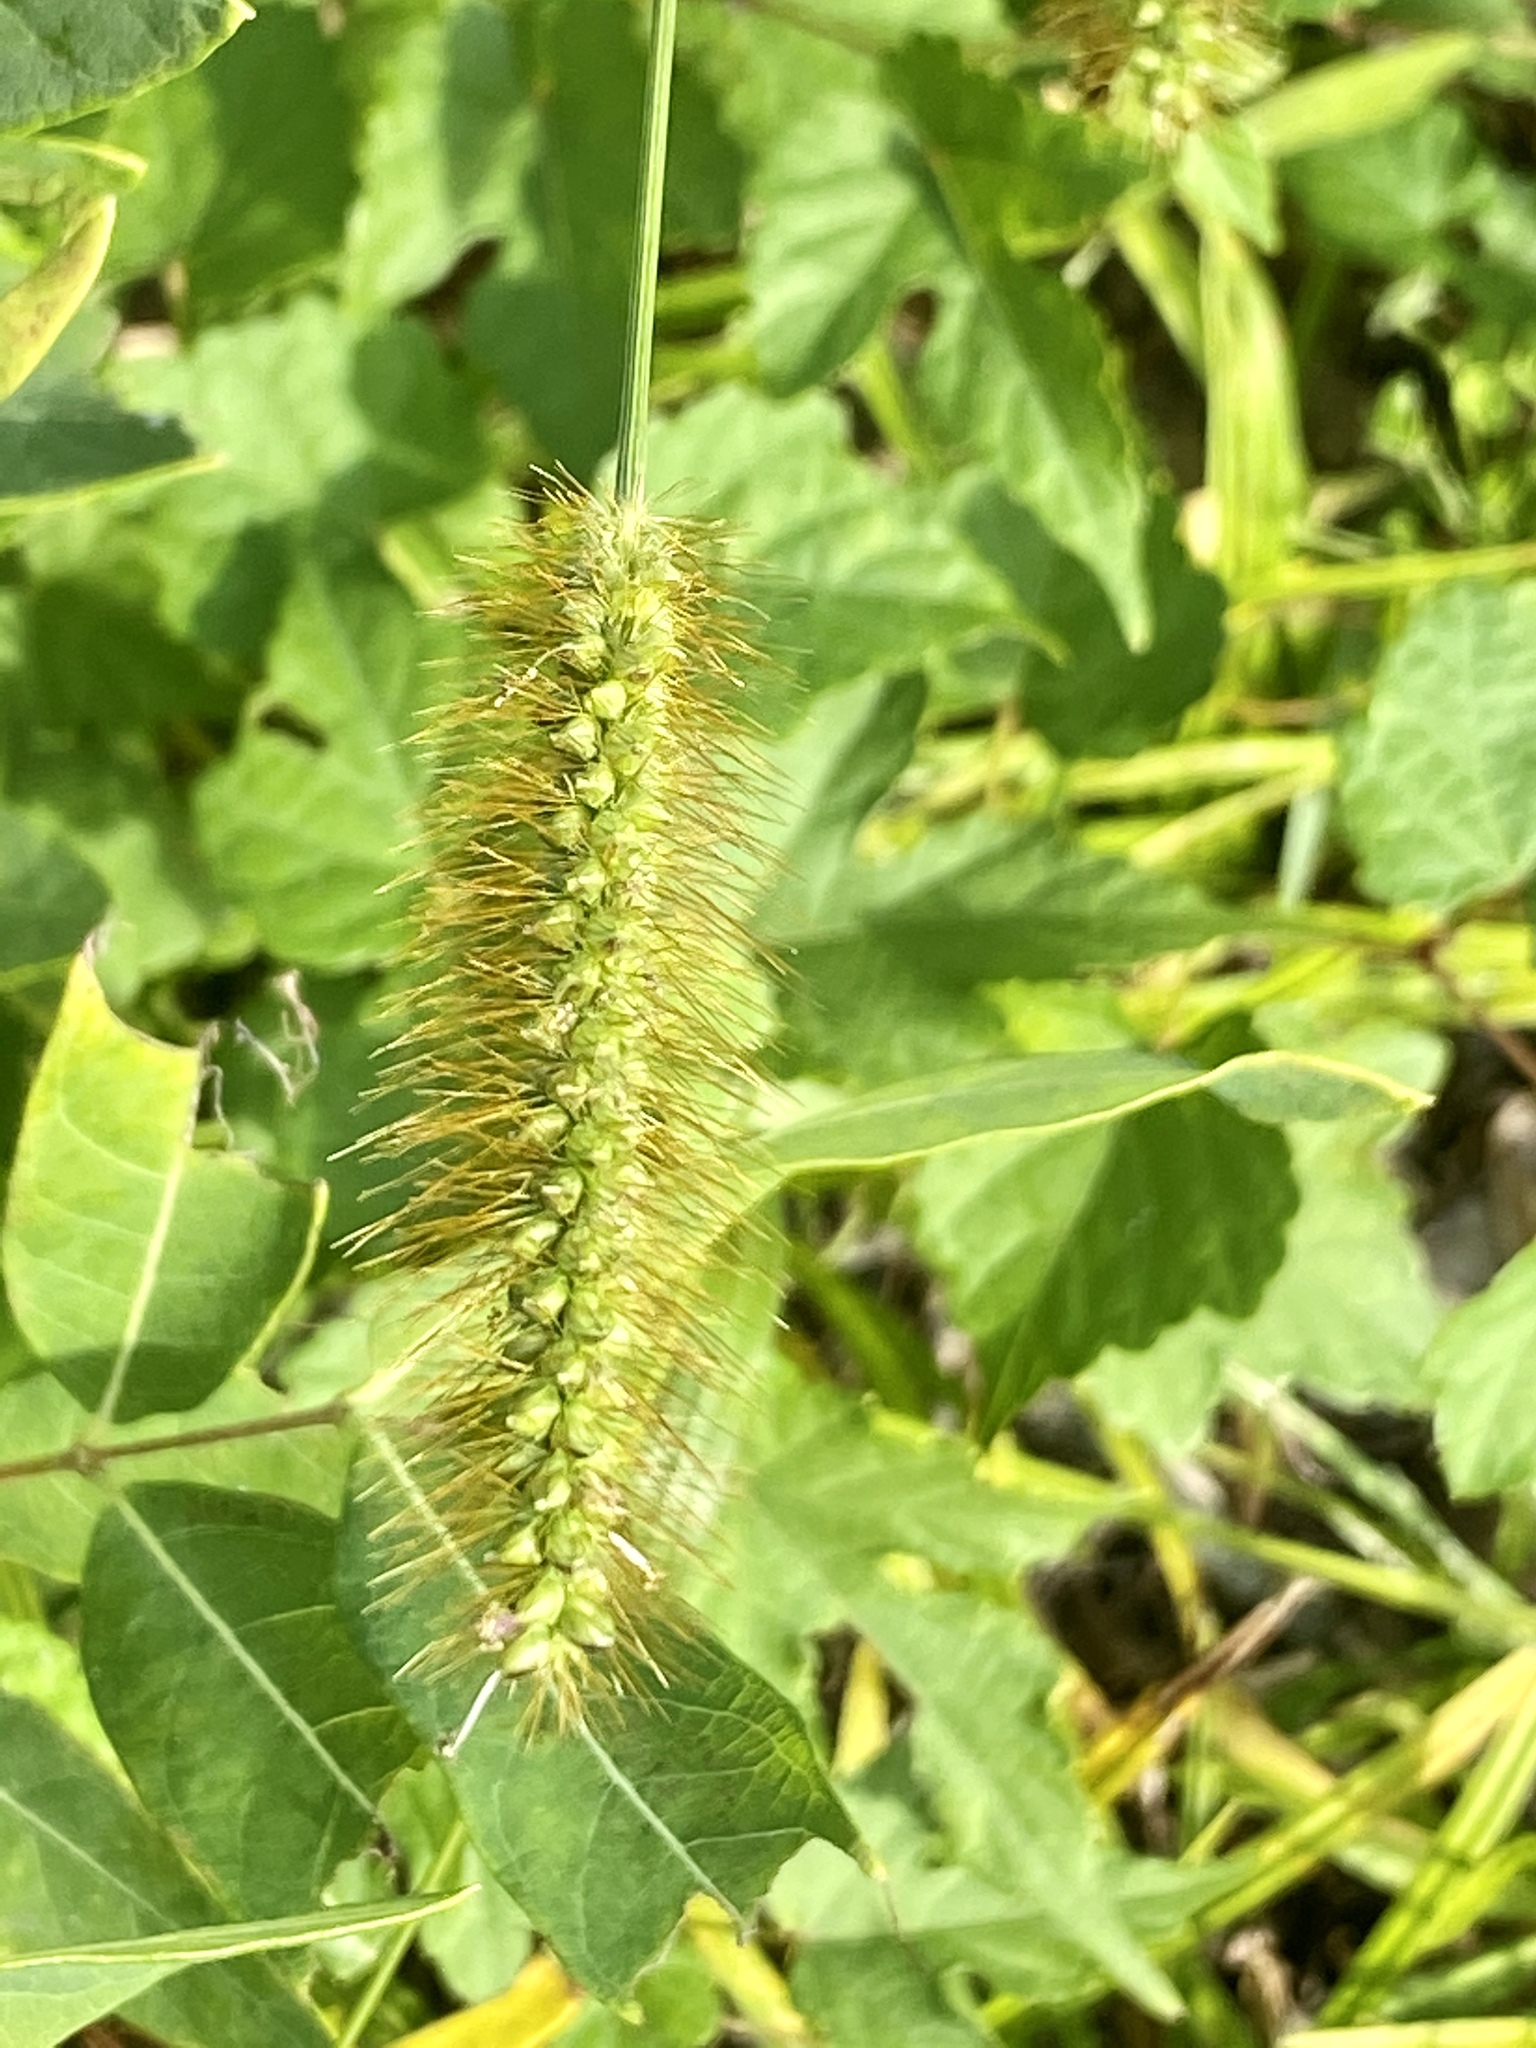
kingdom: Plantae
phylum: Tracheophyta
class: Liliopsida
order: Poales
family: Poaceae
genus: Setaria
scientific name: Setaria pumila
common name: Yellow bristle-grass
